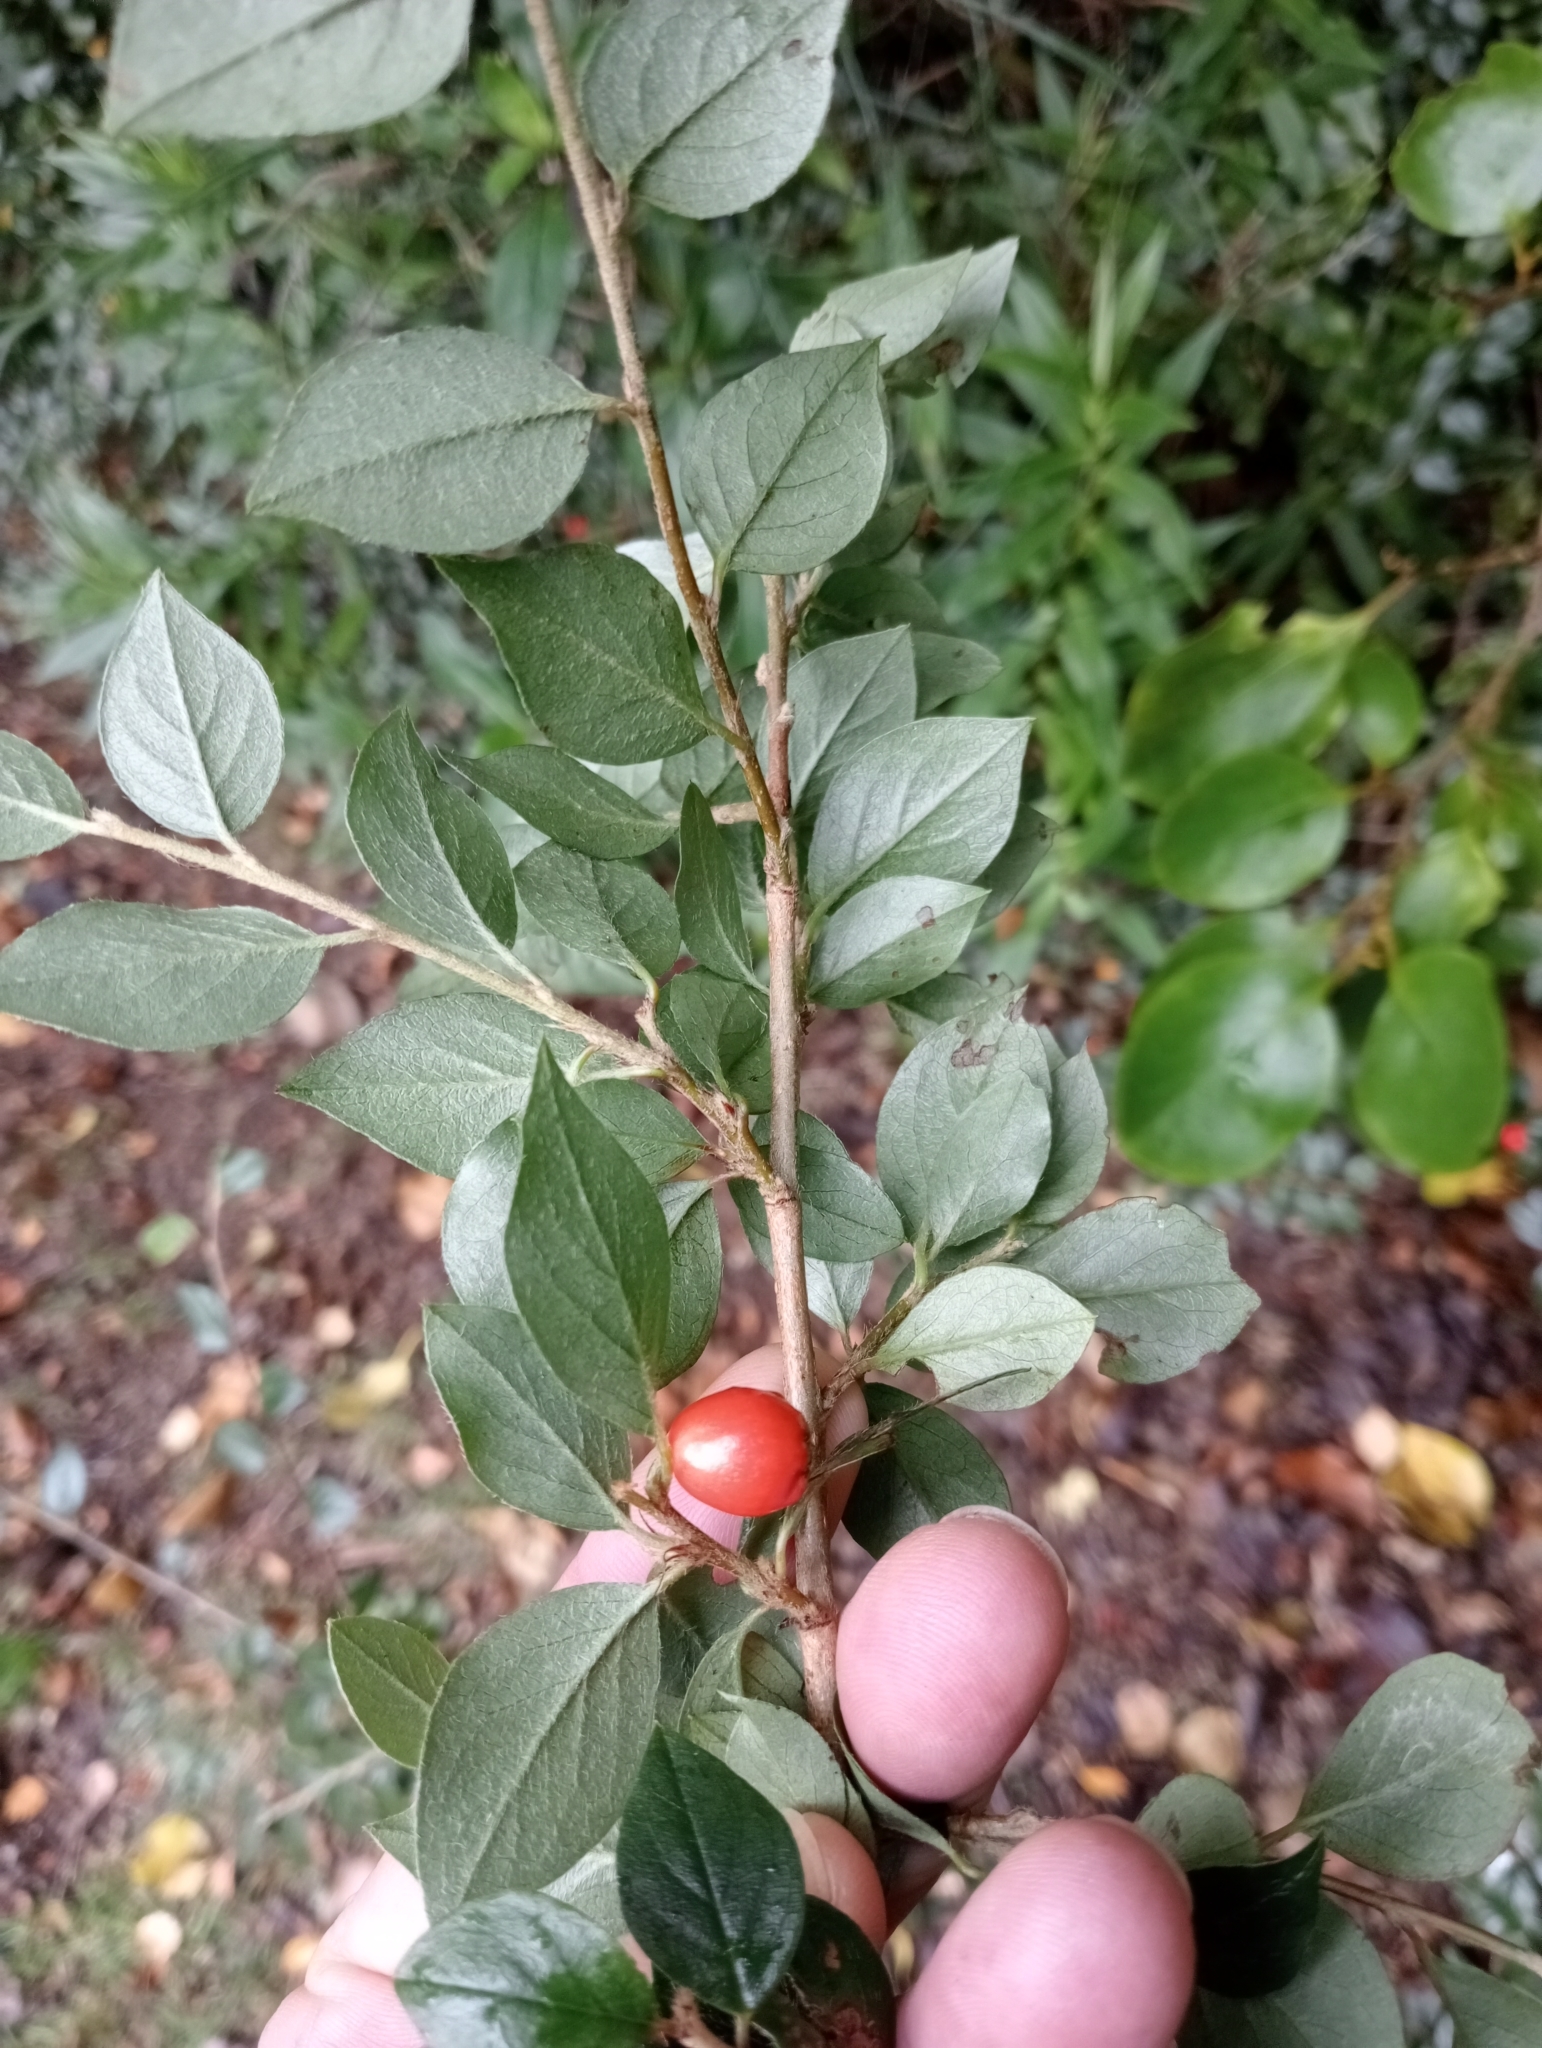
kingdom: Plantae
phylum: Tracheophyta
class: Magnoliopsida
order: Rosales
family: Rosaceae
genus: Cotoneaster
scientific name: Cotoneaster simonsii
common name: Himalayan cotoneaster
